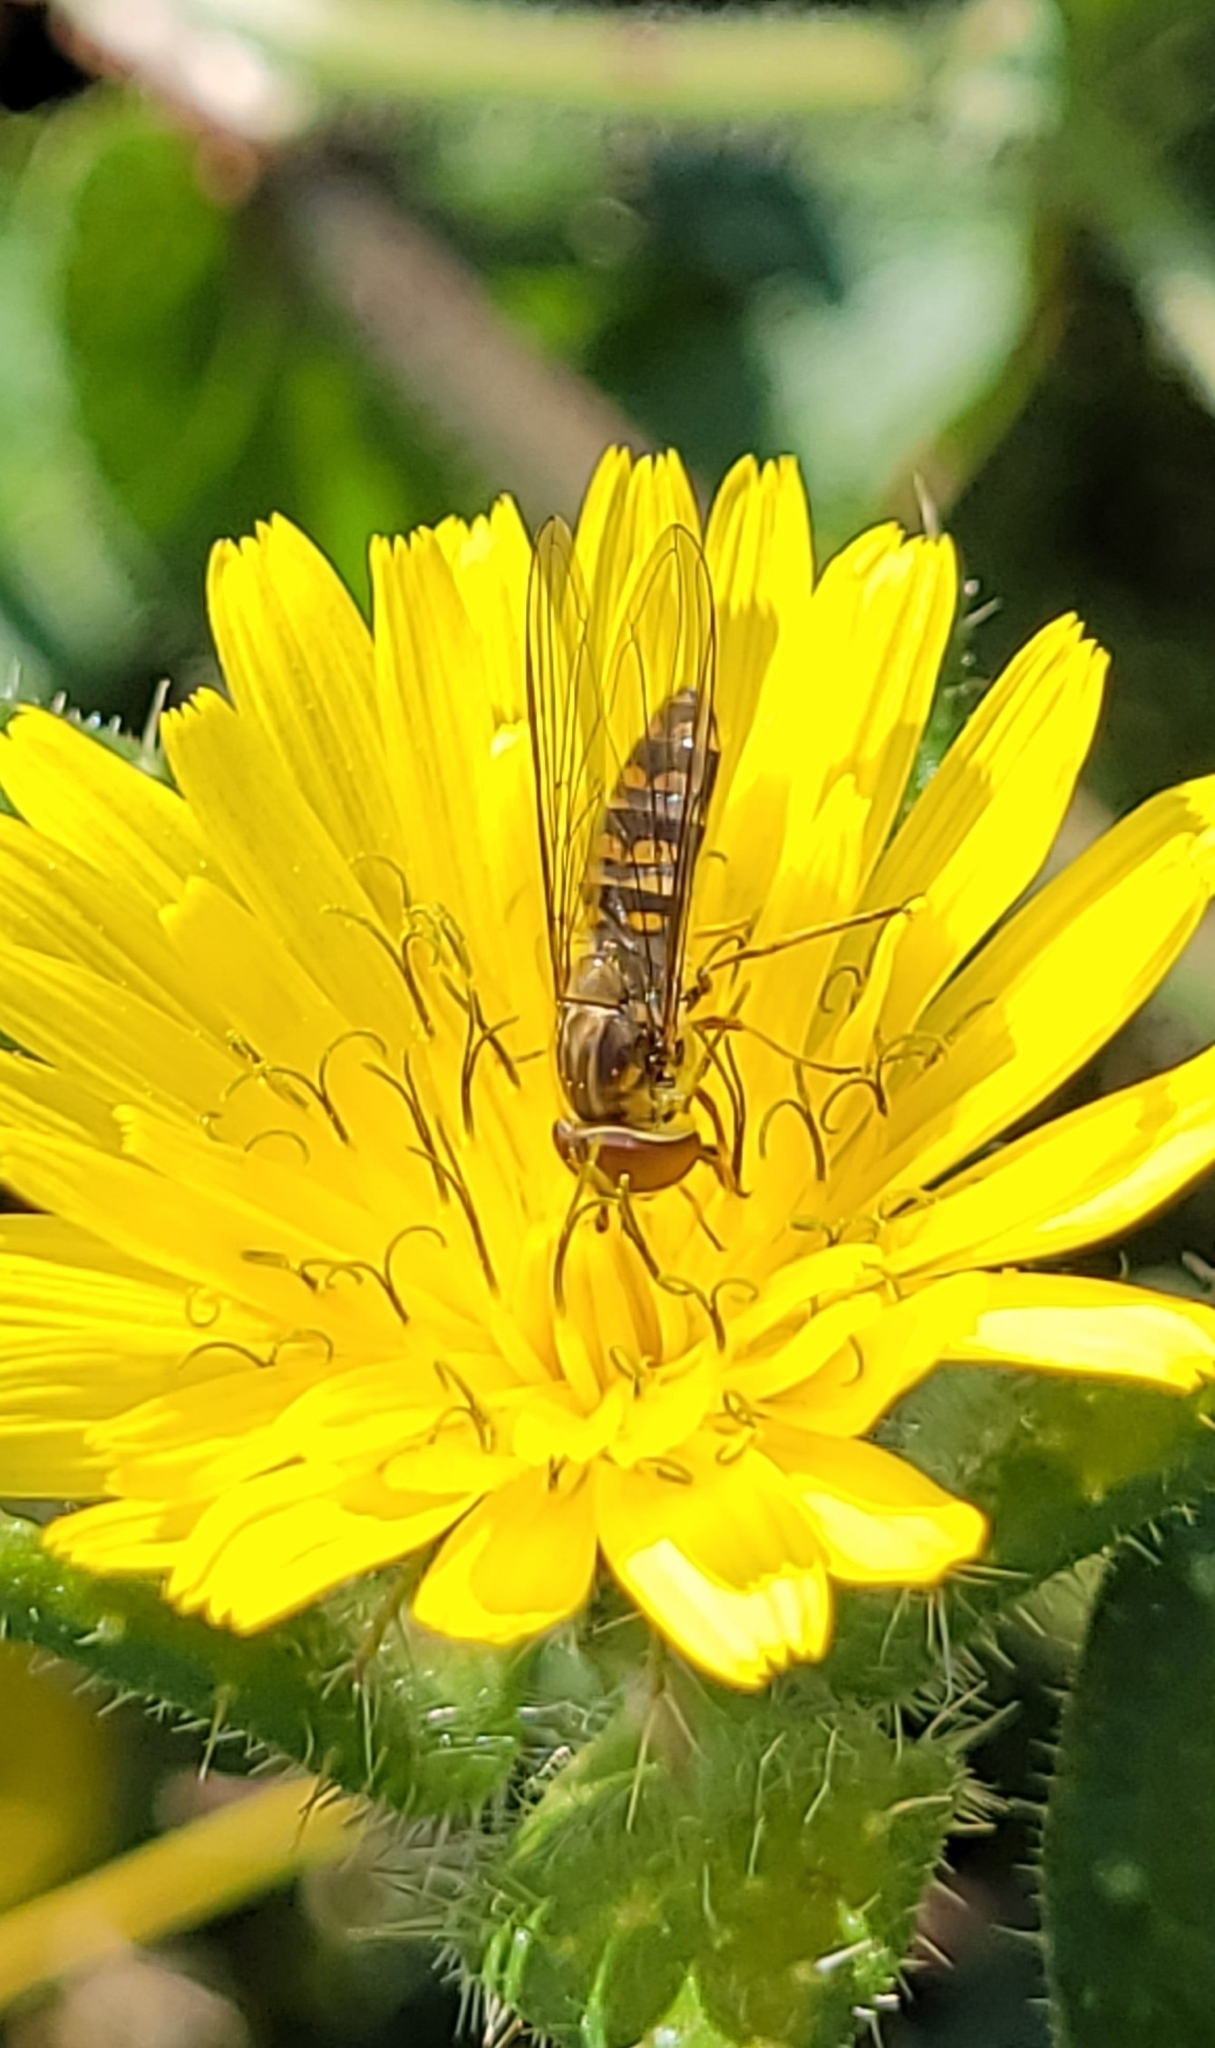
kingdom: Animalia
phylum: Arthropoda
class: Insecta
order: Diptera
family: Syrphidae
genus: Episyrphus
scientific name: Episyrphus balteatus
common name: Marmalade hoverfly
